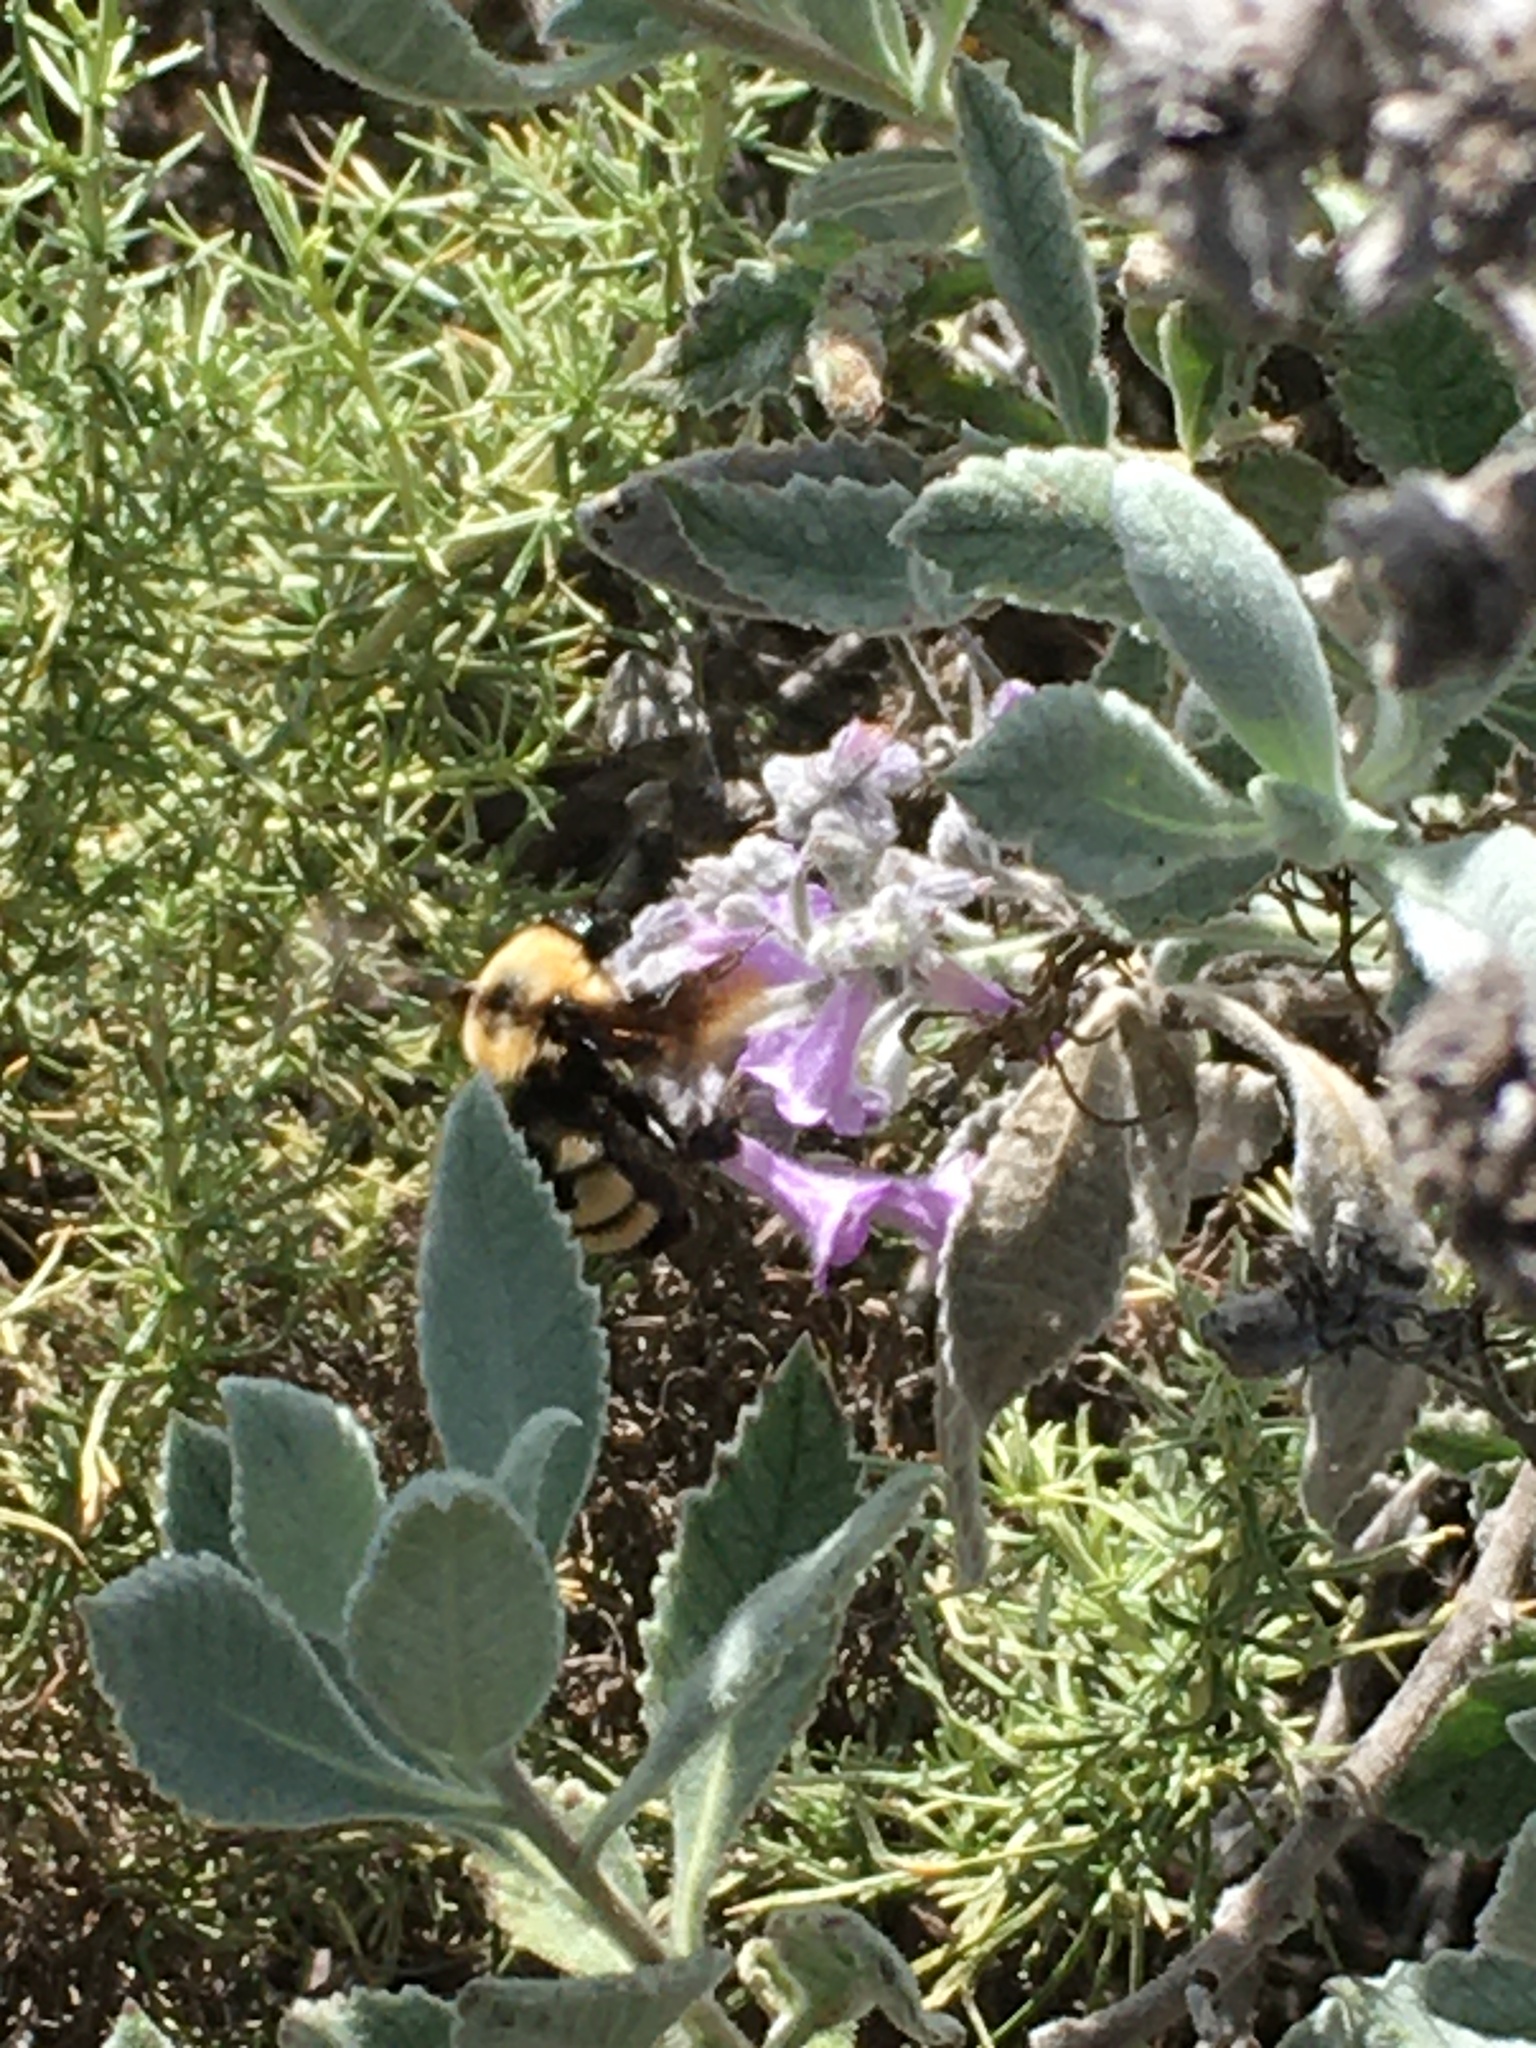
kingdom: Animalia
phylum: Arthropoda
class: Insecta
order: Hymenoptera
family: Apidae
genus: Bombus
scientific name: Bombus sonorus
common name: Sonoran bumble bee
